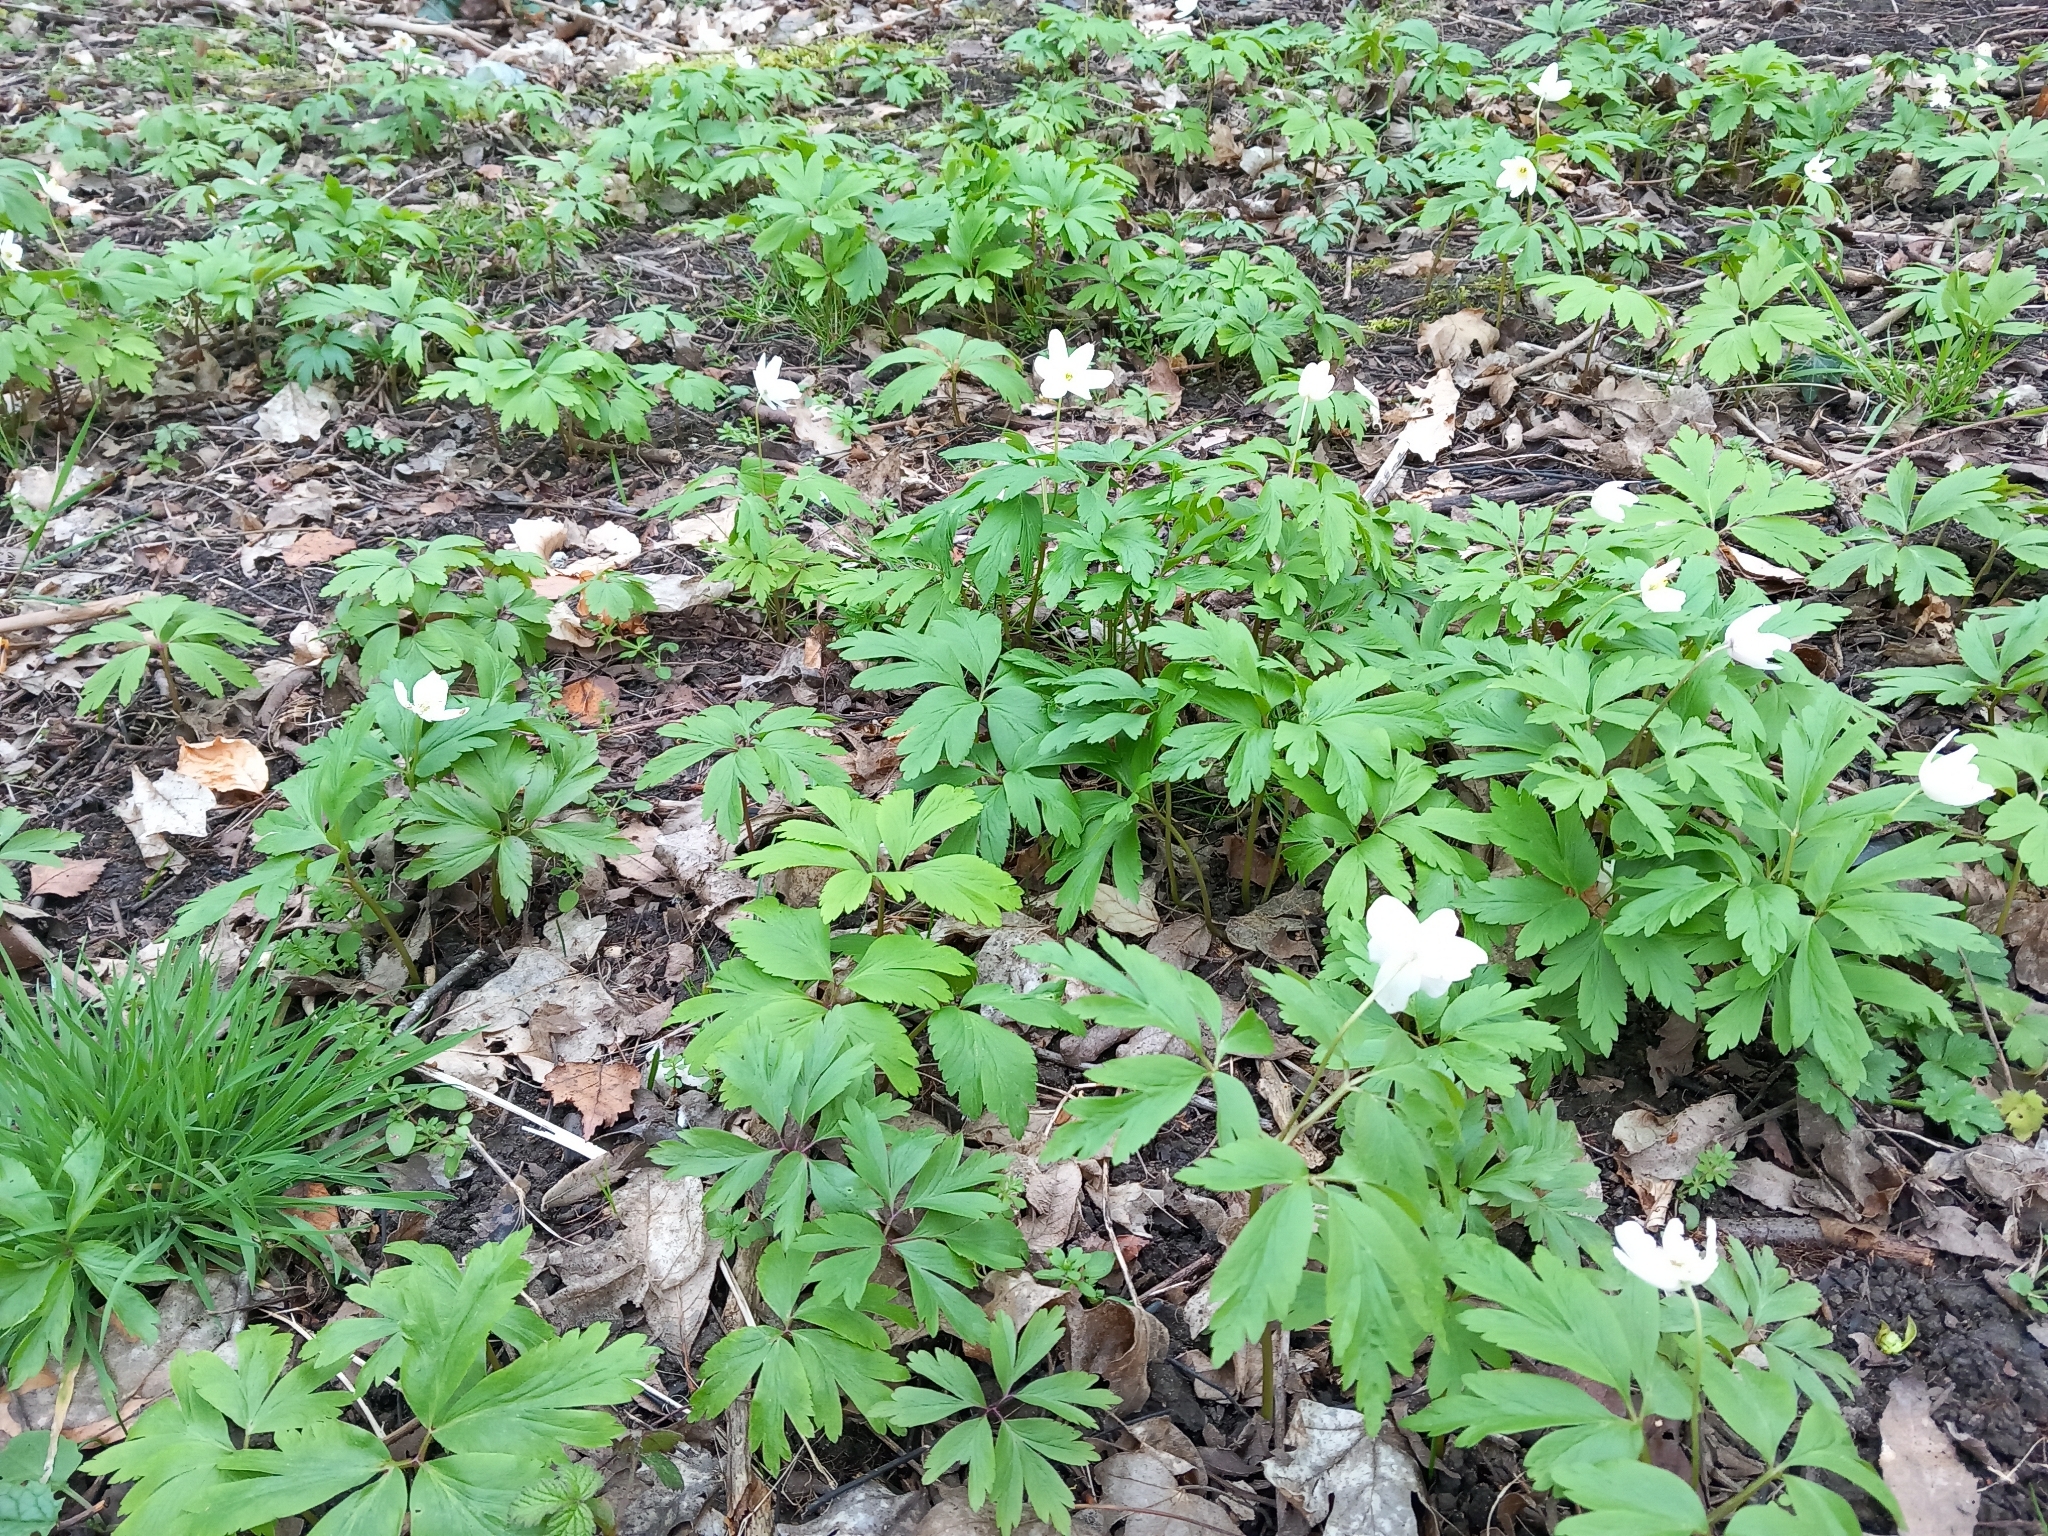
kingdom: Plantae
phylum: Tracheophyta
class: Magnoliopsida
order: Ranunculales
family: Ranunculaceae
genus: Anemone
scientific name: Anemone nemorosa
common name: Wood anemone
